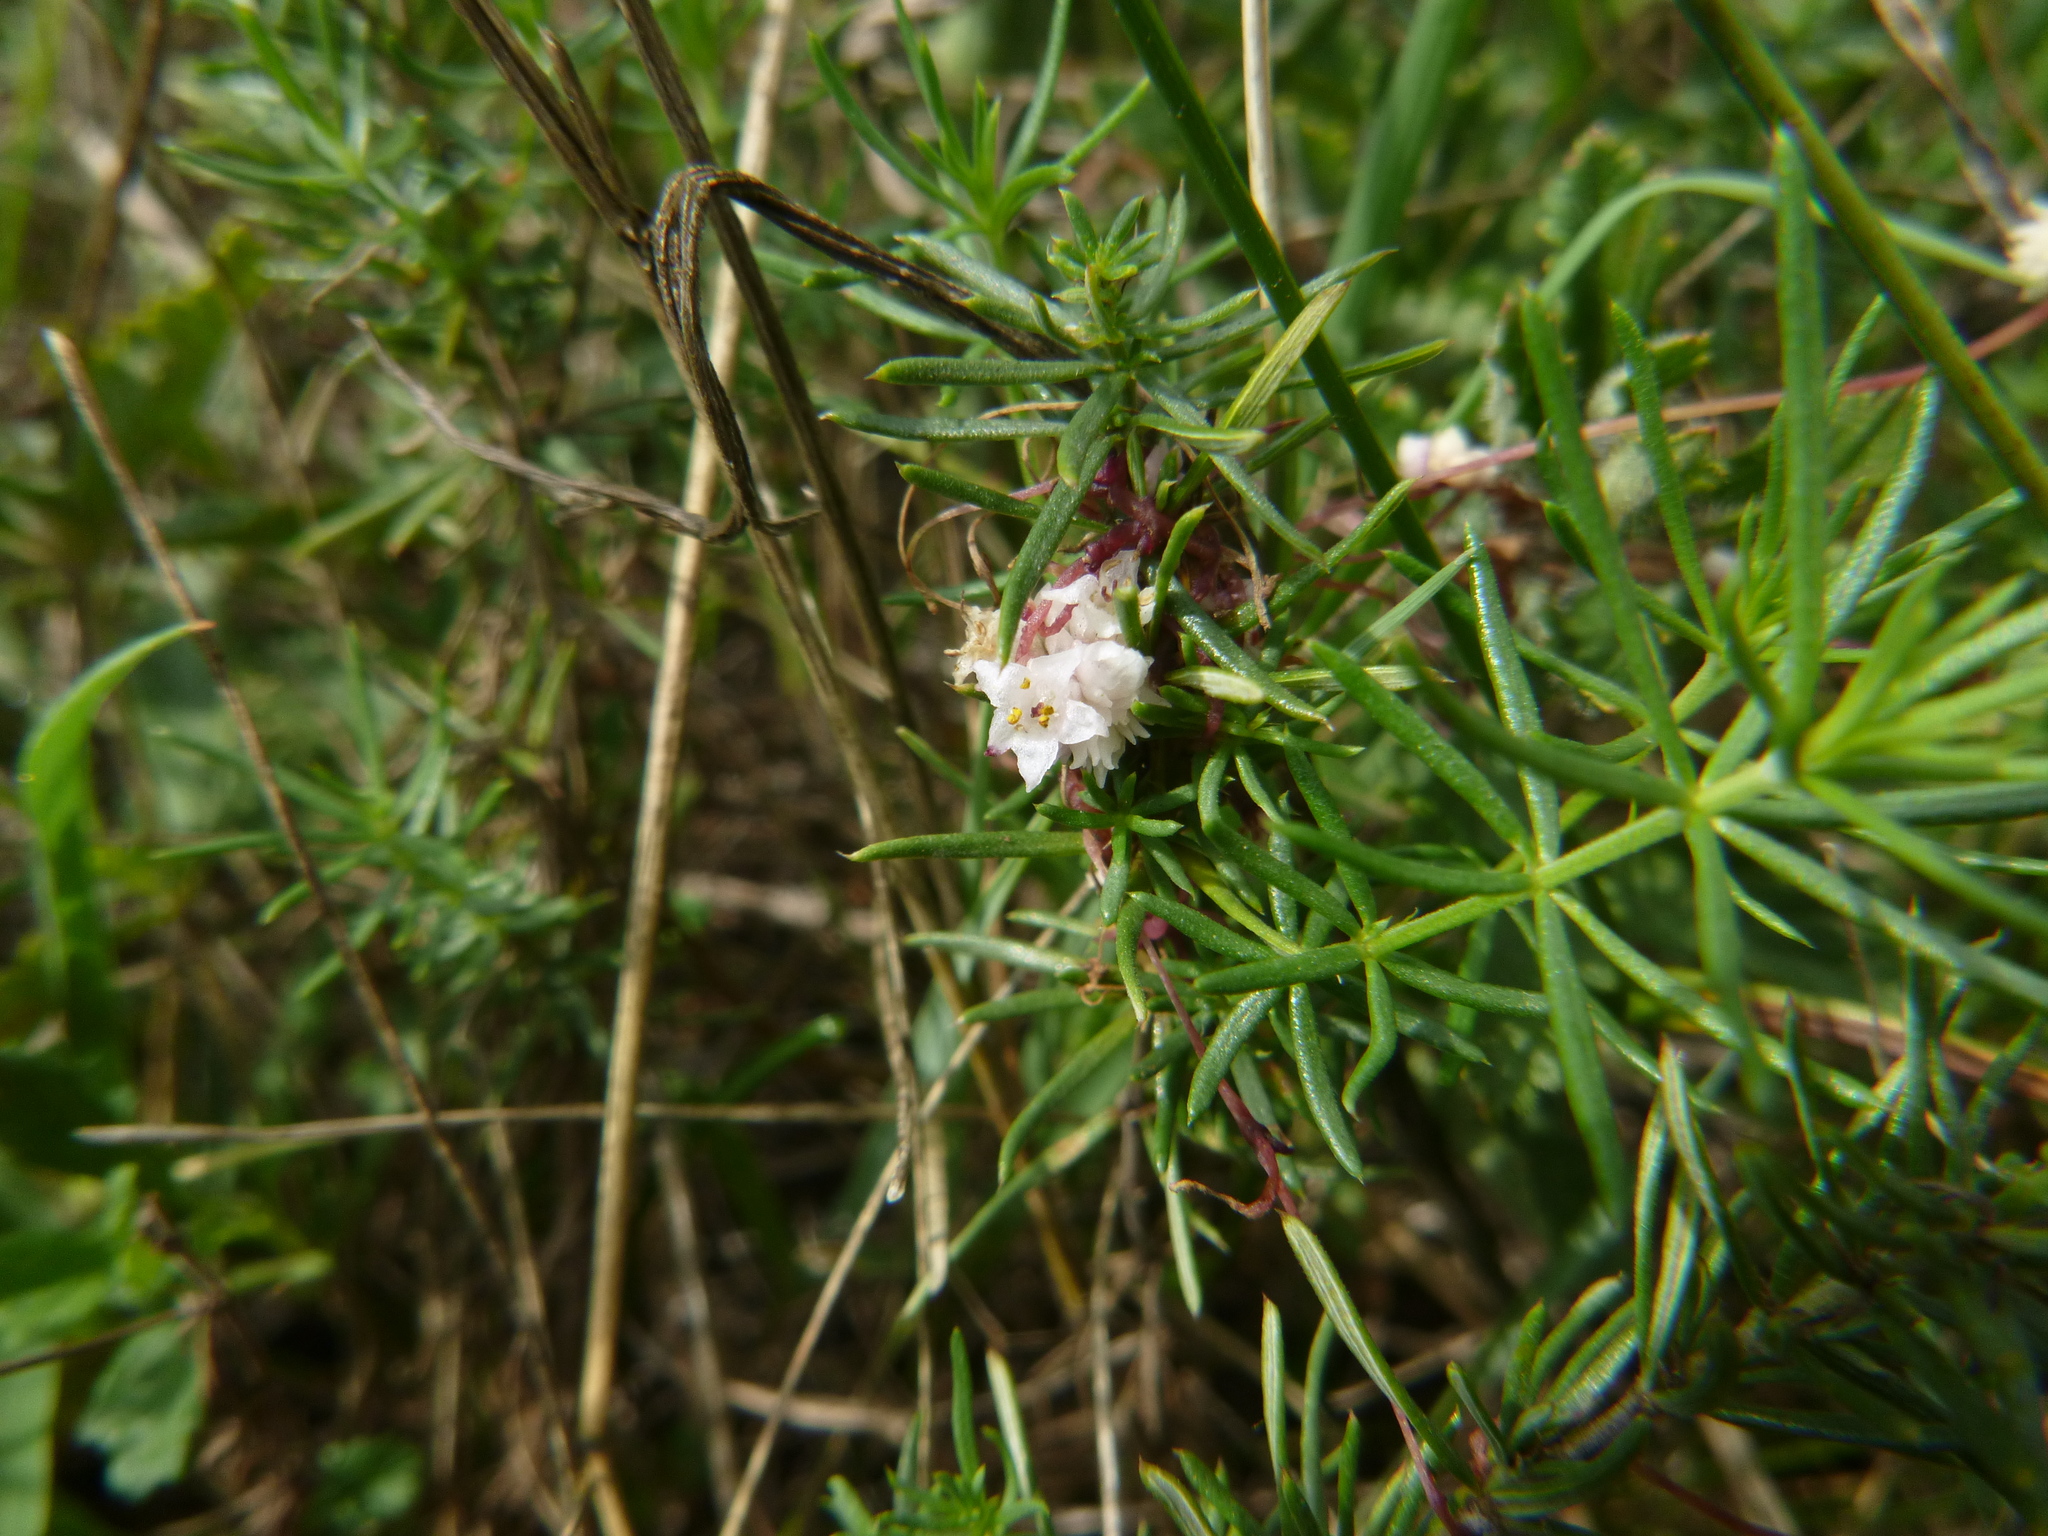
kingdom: Plantae
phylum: Tracheophyta
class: Magnoliopsida
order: Solanales
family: Convolvulaceae
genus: Cuscuta
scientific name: Cuscuta epithymum
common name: Clover dodder
